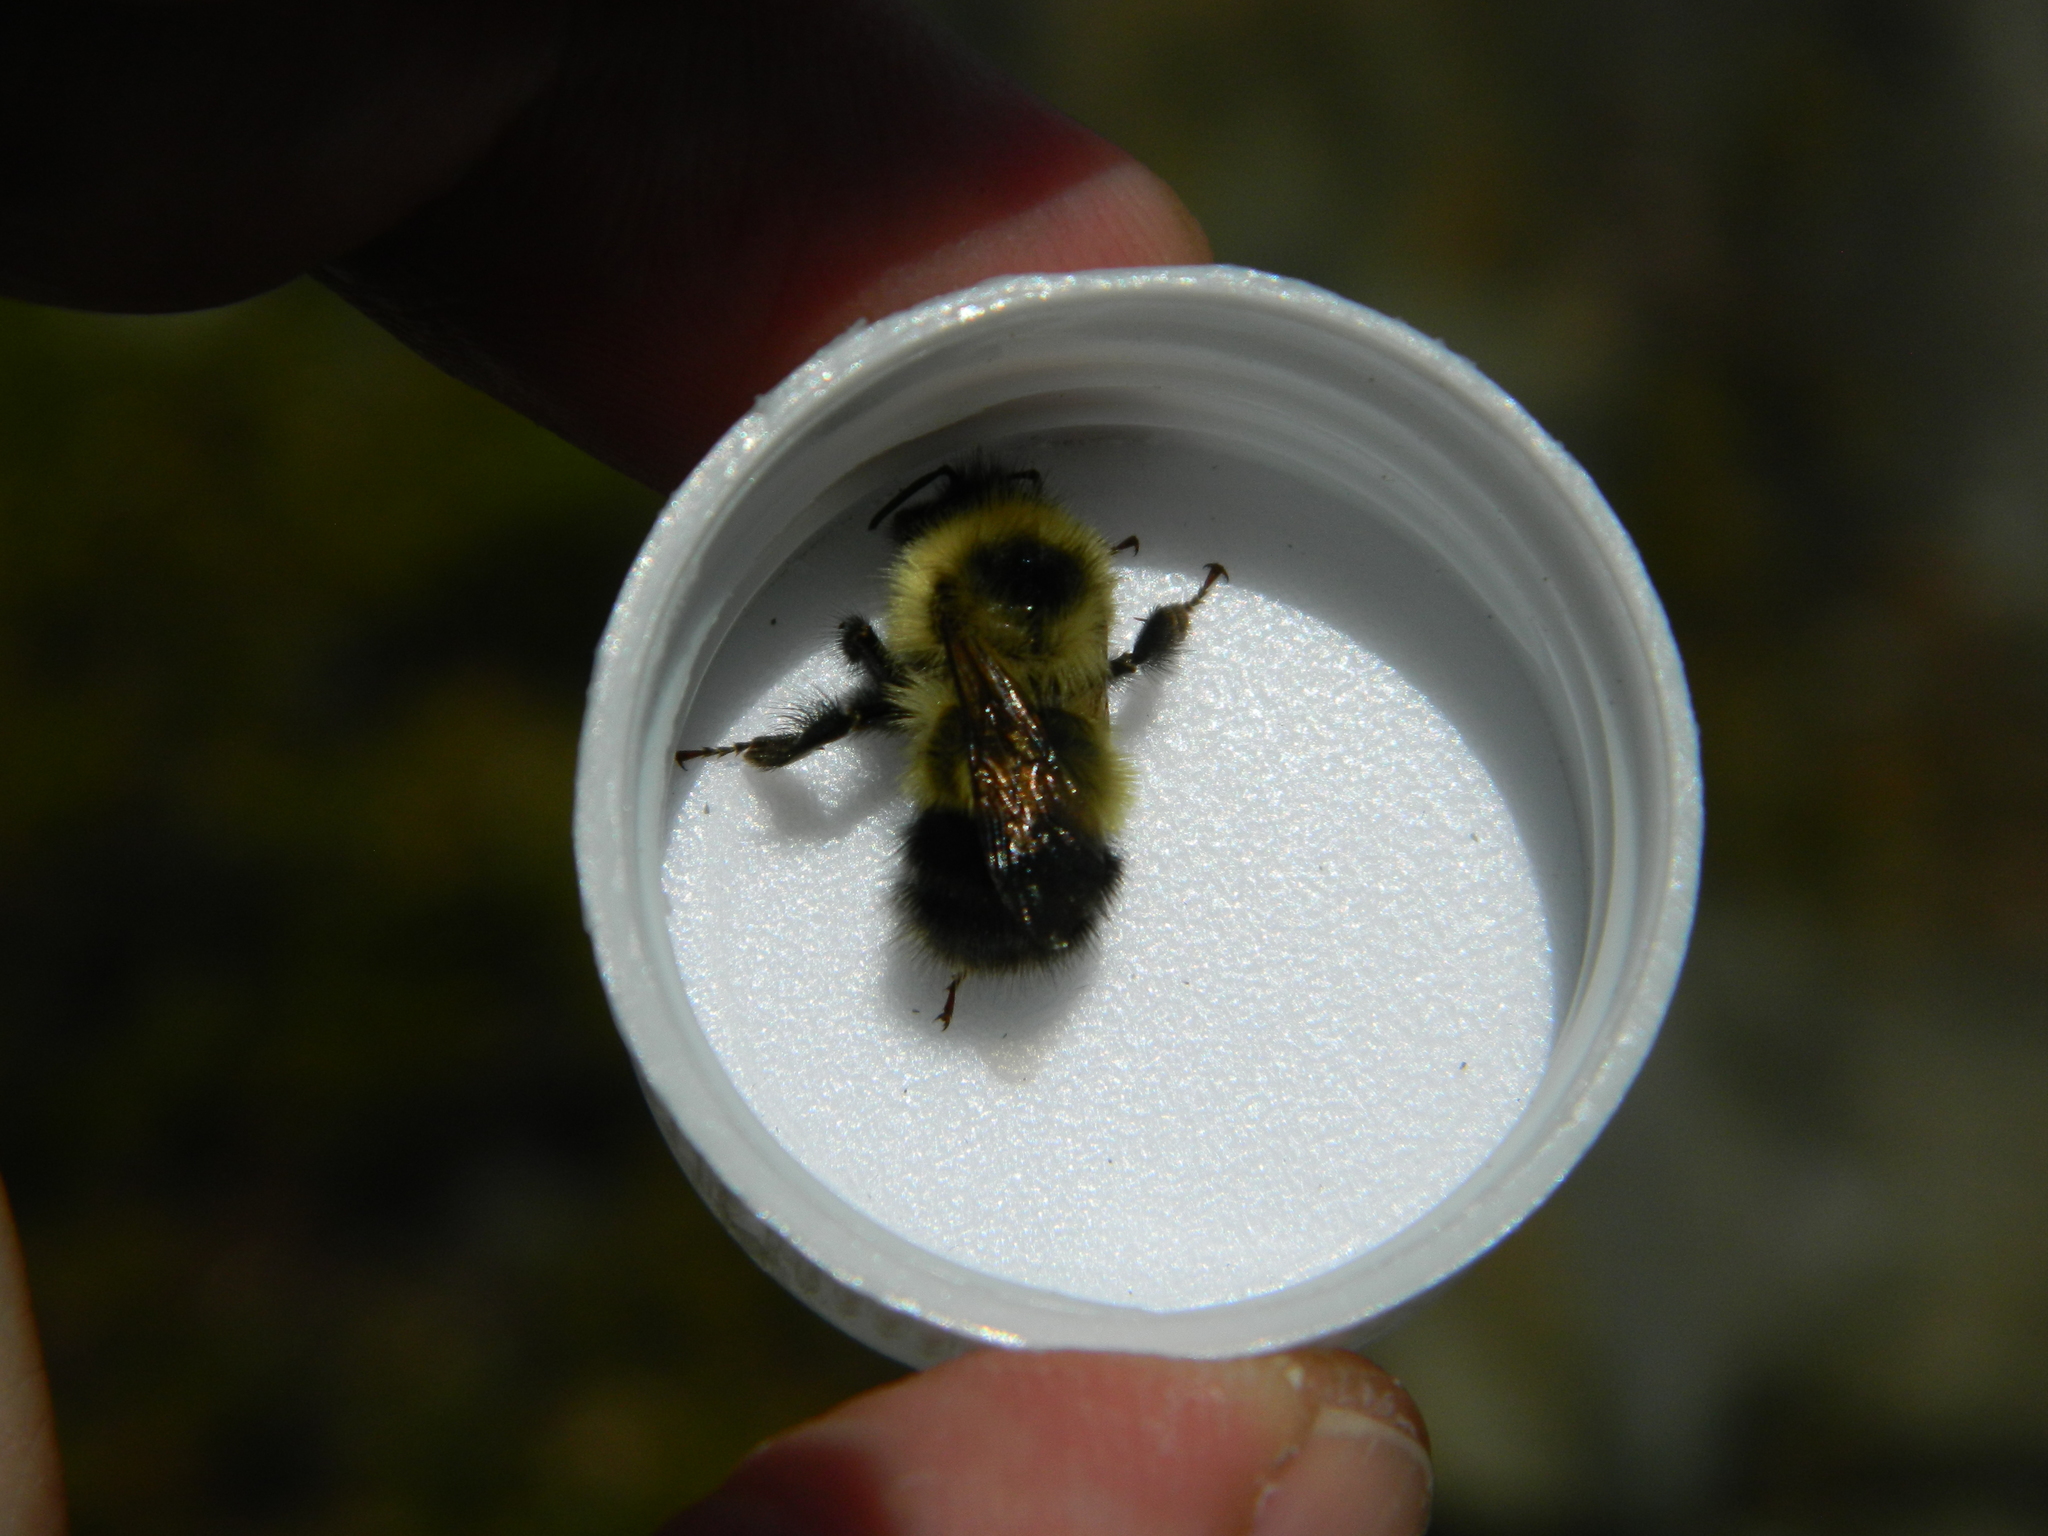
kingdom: Animalia
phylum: Arthropoda
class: Insecta
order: Hymenoptera
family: Apidae
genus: Pyrobombus
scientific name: Pyrobombus
